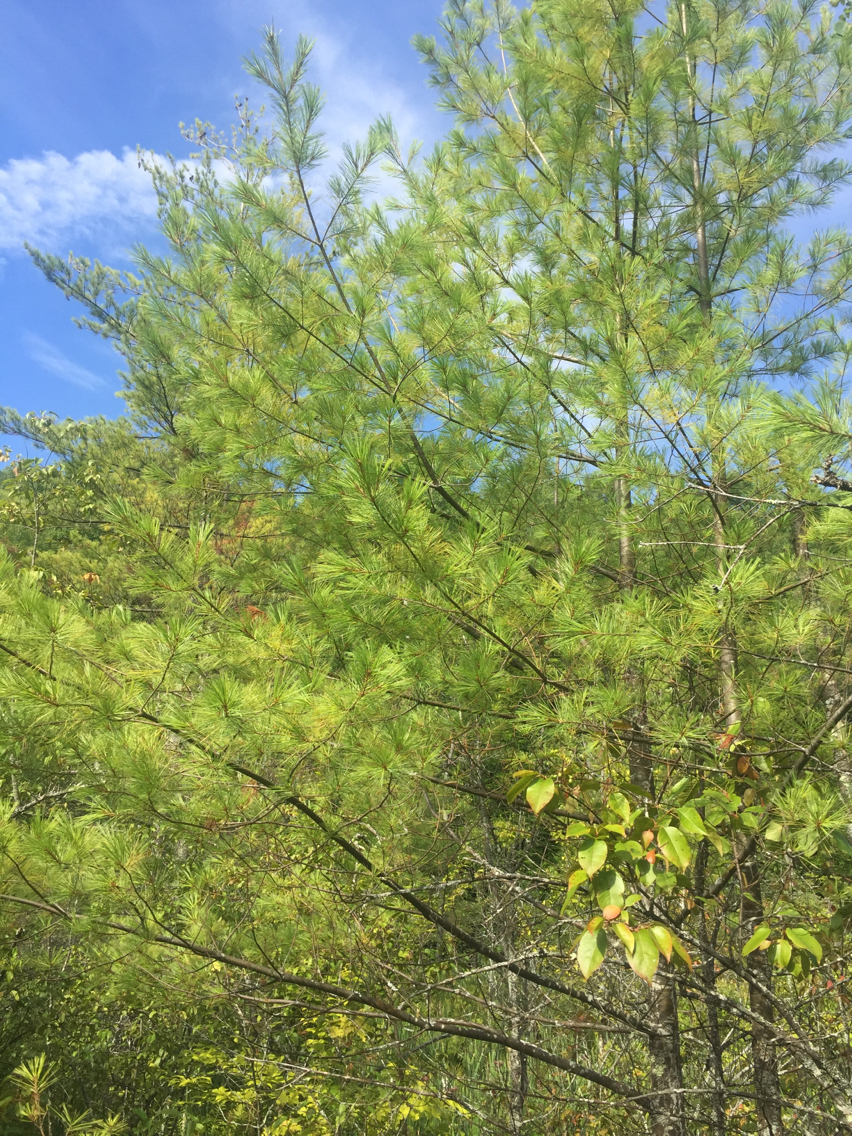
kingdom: Plantae
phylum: Tracheophyta
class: Pinopsida
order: Pinales
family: Pinaceae
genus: Pinus
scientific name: Pinus strobus
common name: Weymouth pine
